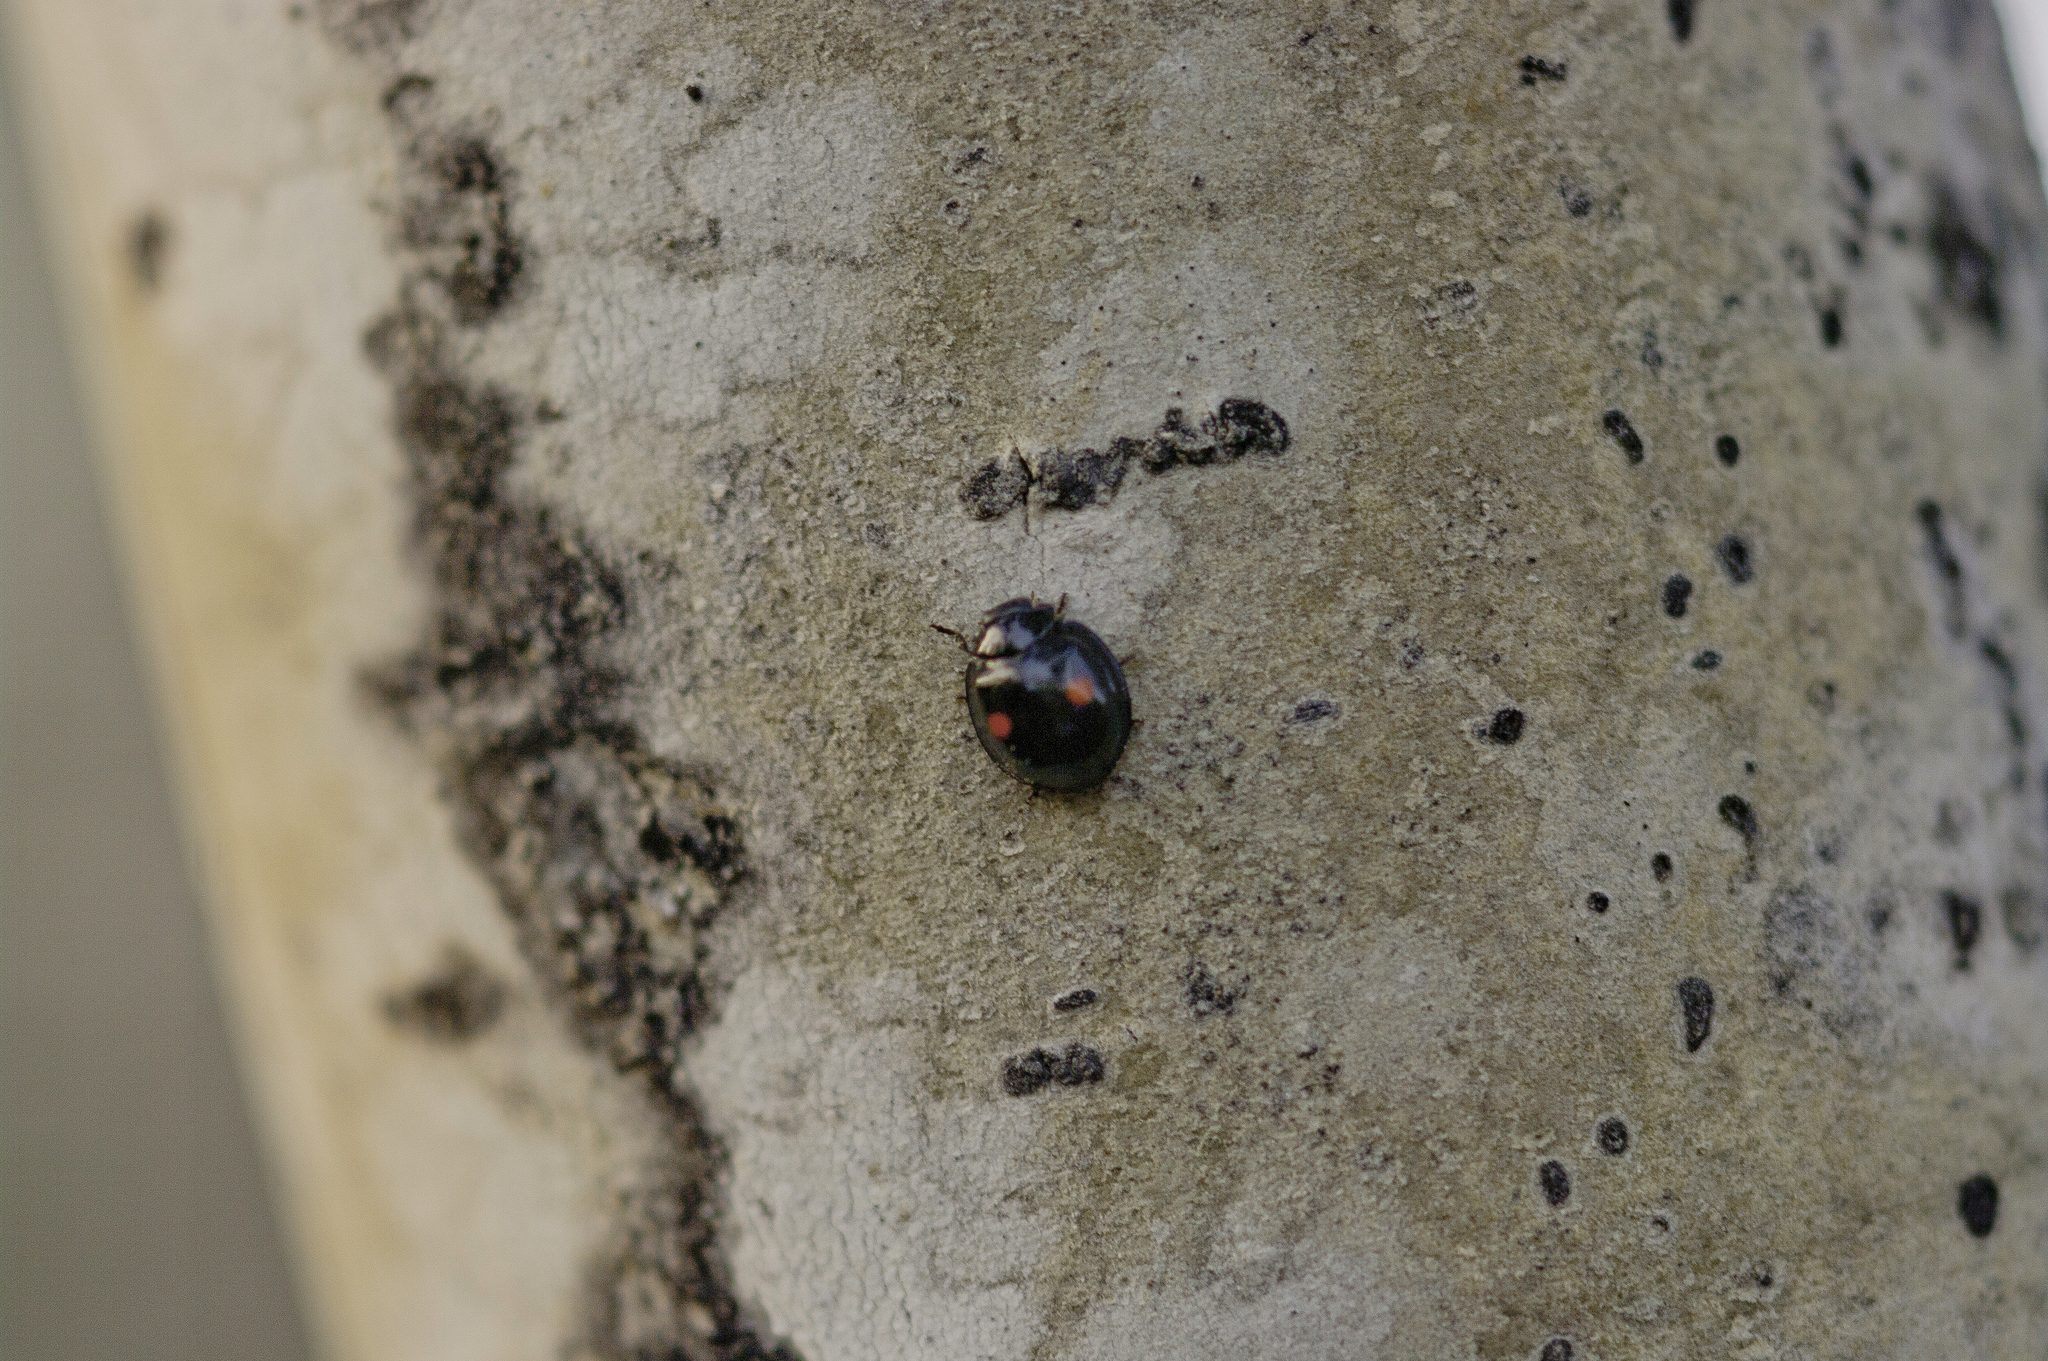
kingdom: Animalia
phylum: Arthropoda
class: Insecta
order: Coleoptera
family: Coccinellidae
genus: Chilocorus
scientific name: Chilocorus stigma
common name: Twicestabbed lady beetle
